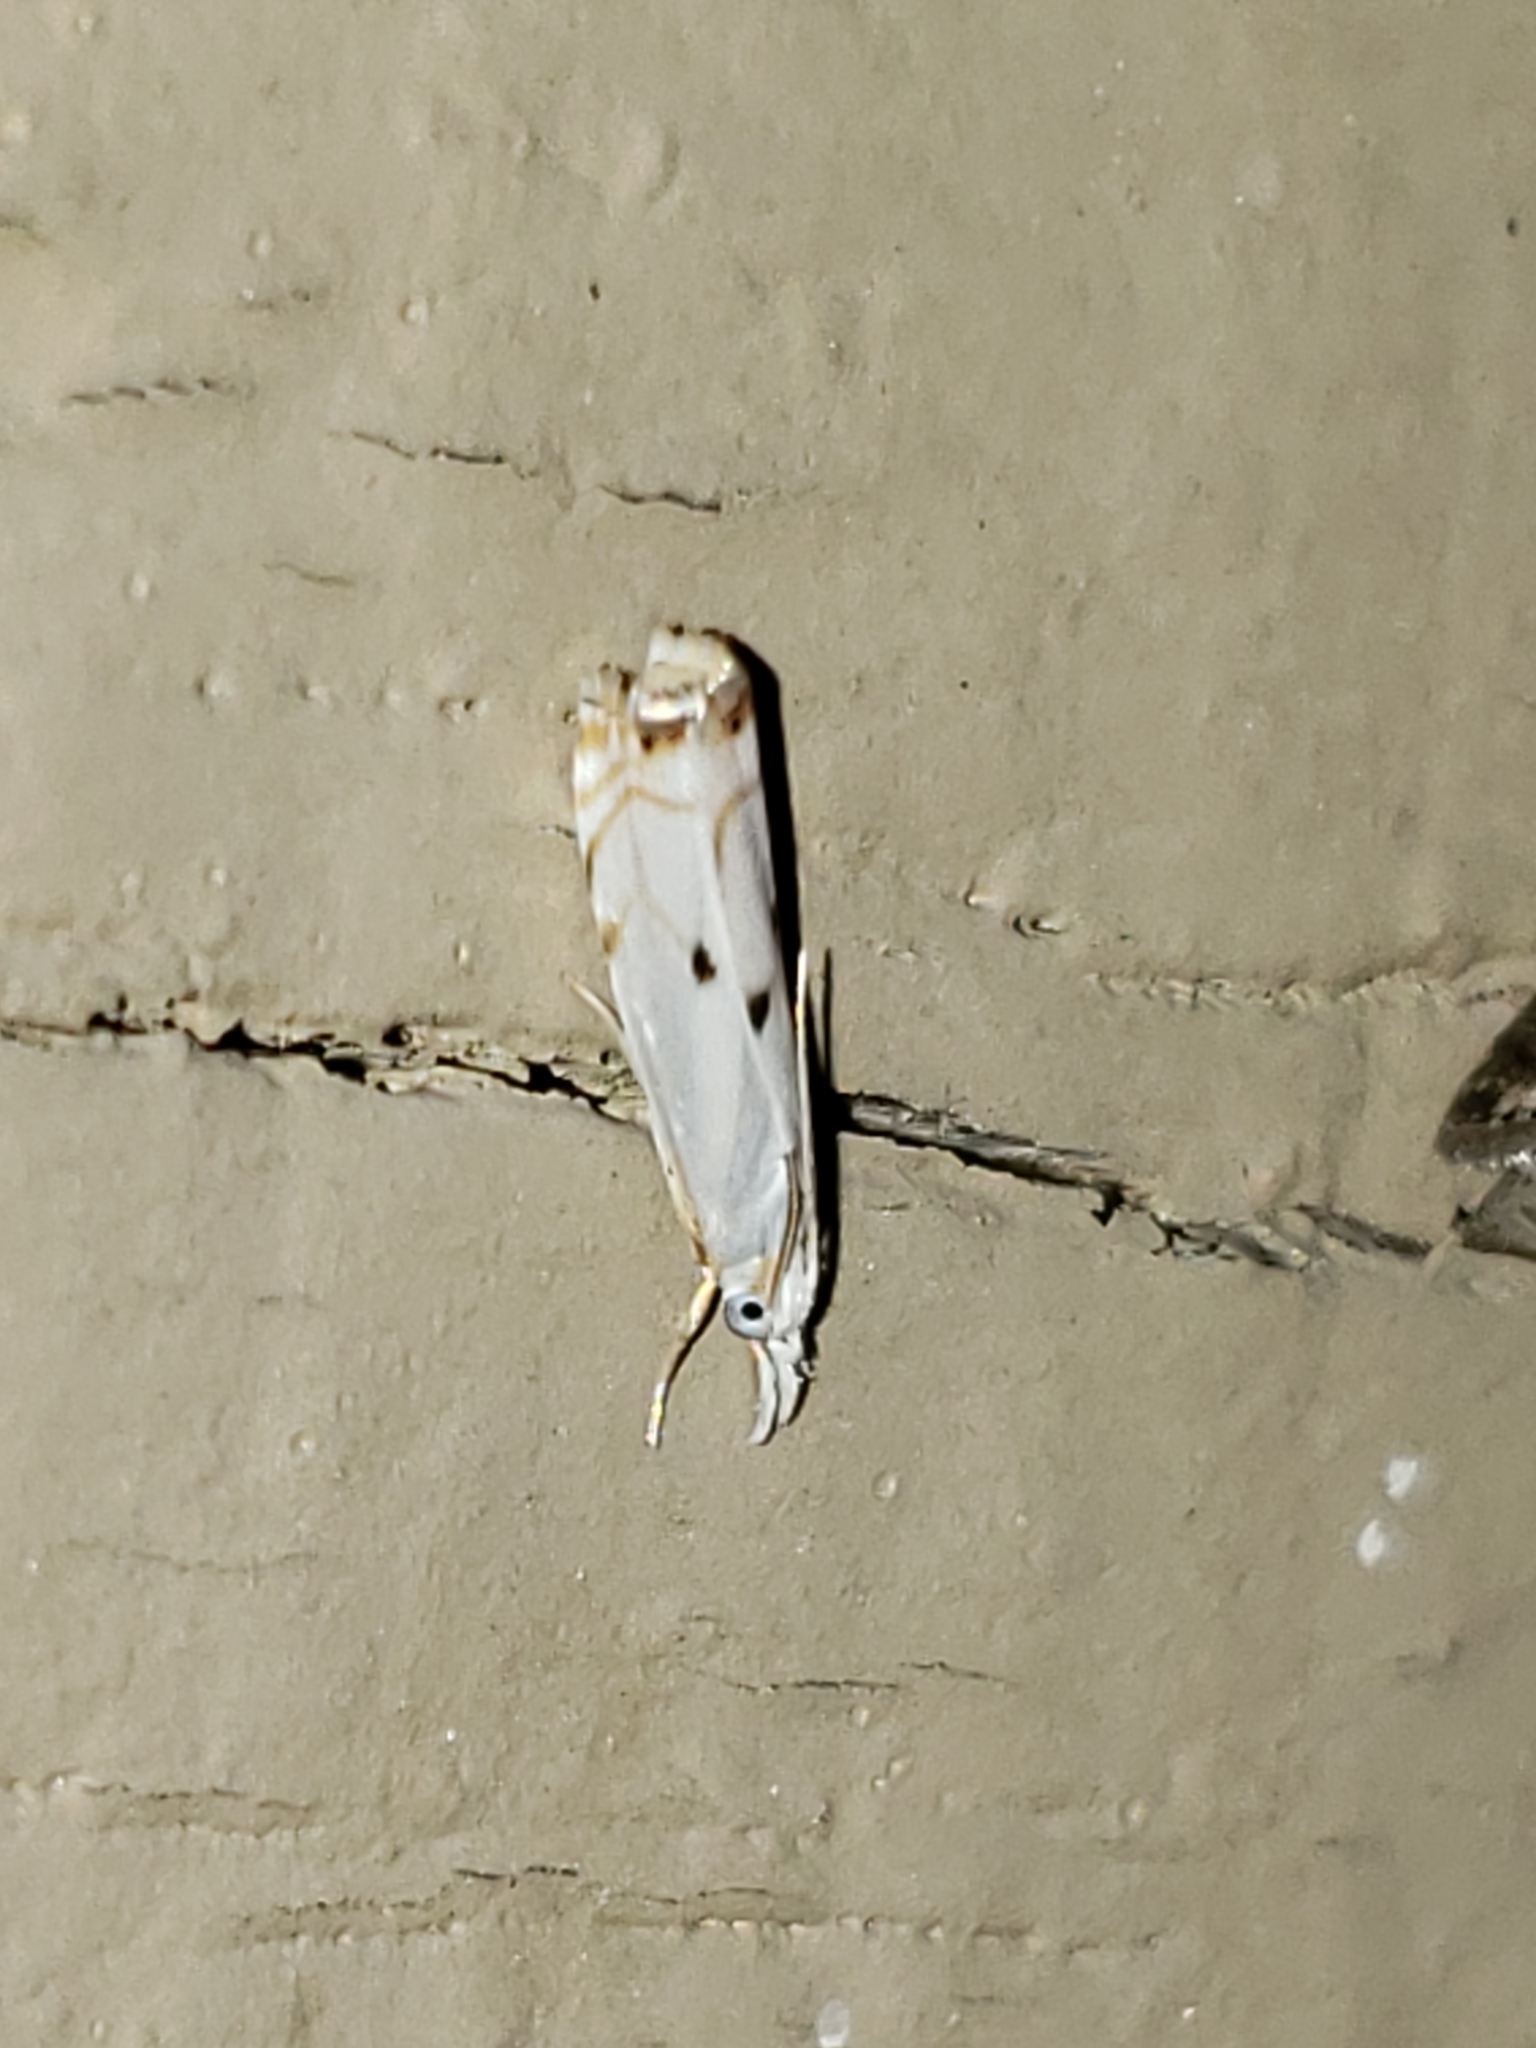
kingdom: Animalia
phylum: Arthropoda
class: Insecta
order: Lepidoptera
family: Crambidae
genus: Microcrambus
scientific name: Microcrambus biguttellus
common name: Gold-stripe grass-veneer moth
